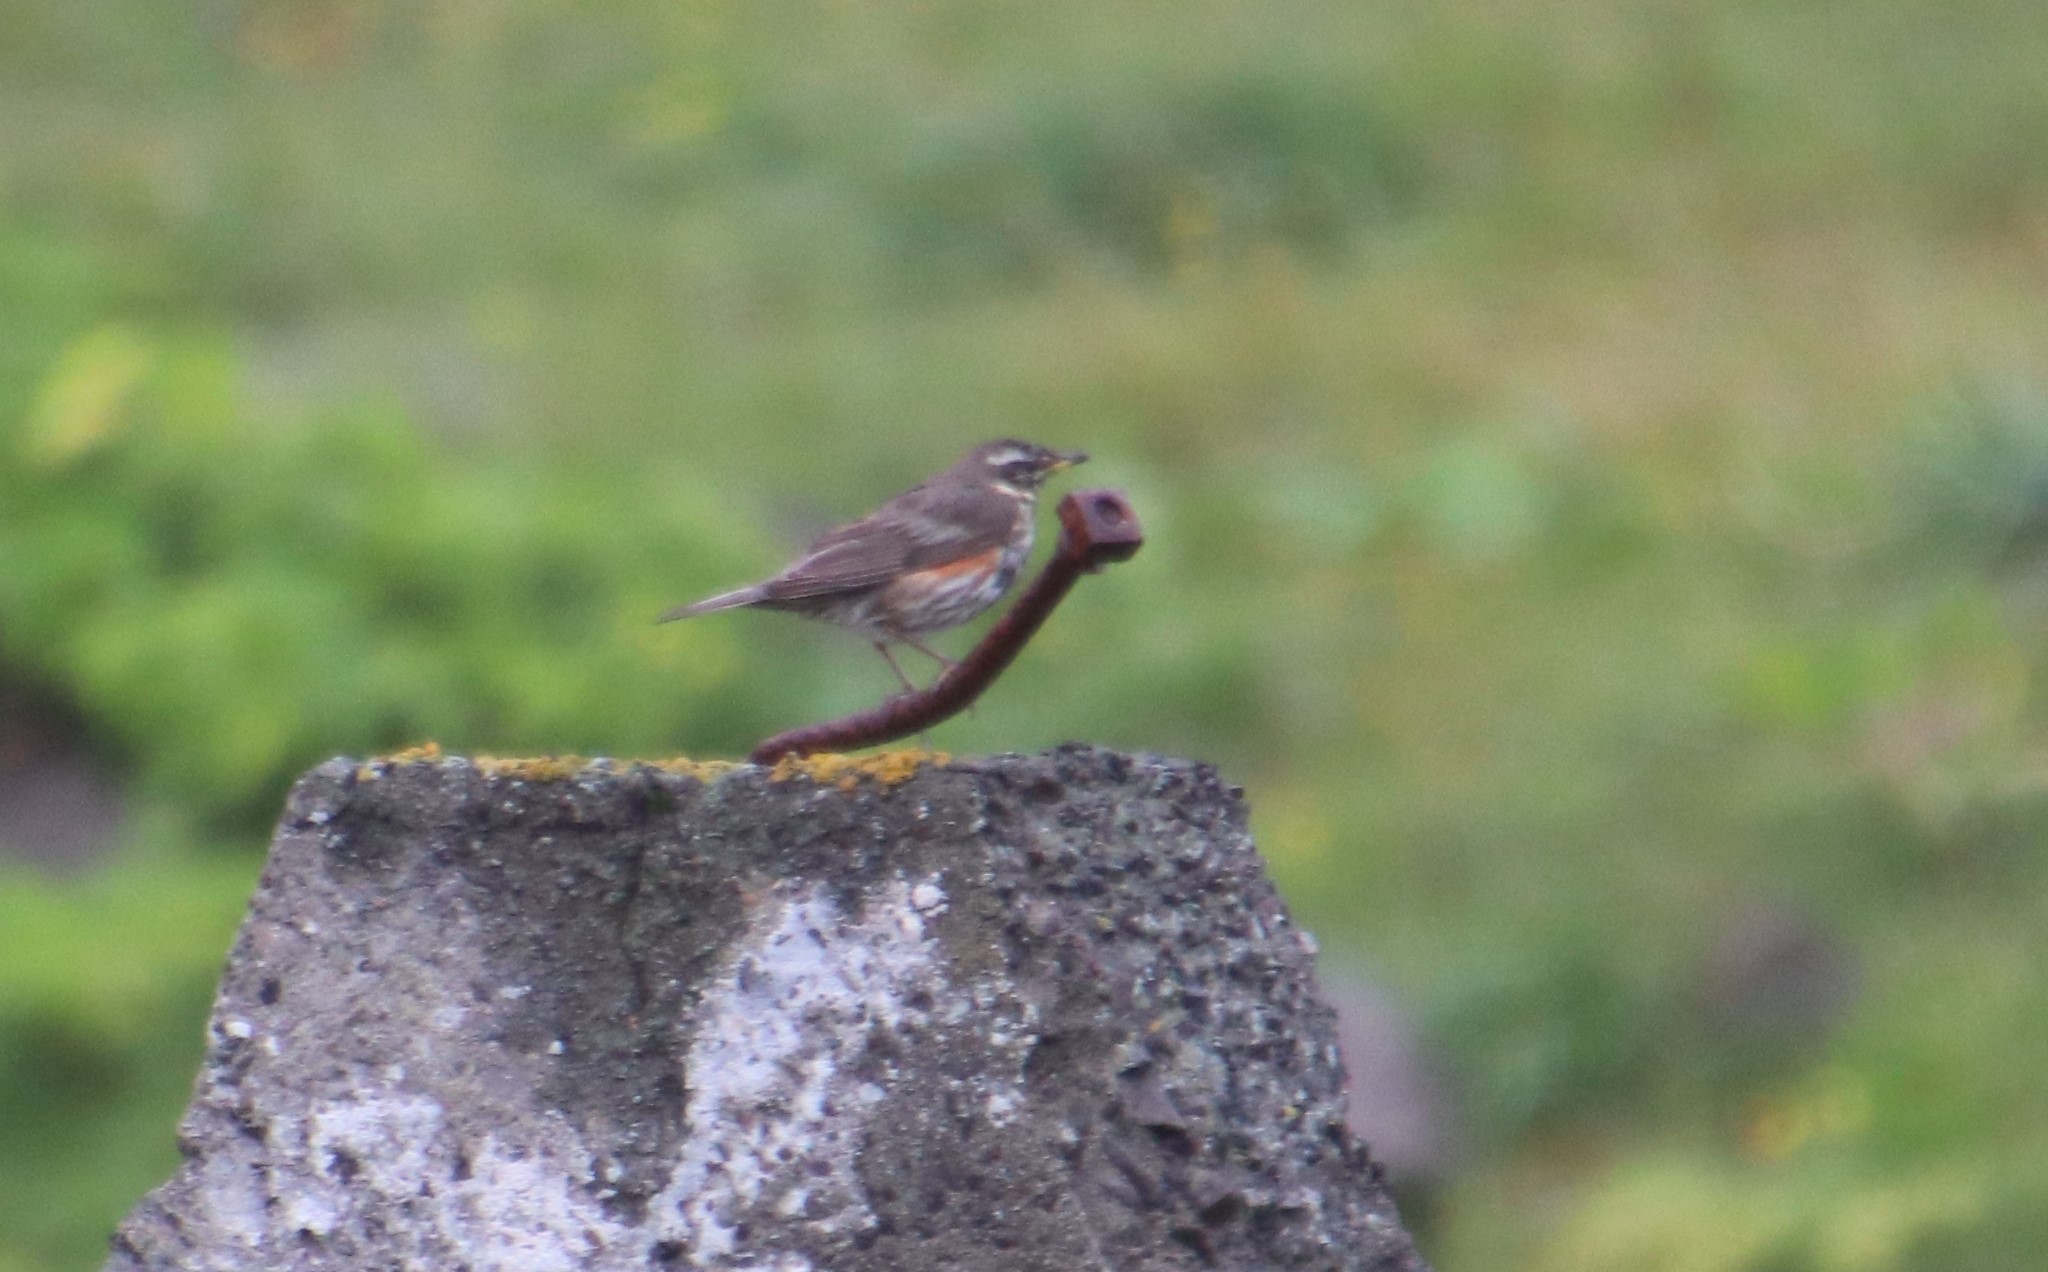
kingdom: Animalia
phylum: Chordata
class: Aves
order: Passeriformes
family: Turdidae
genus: Turdus
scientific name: Turdus iliacus
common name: Redwing
